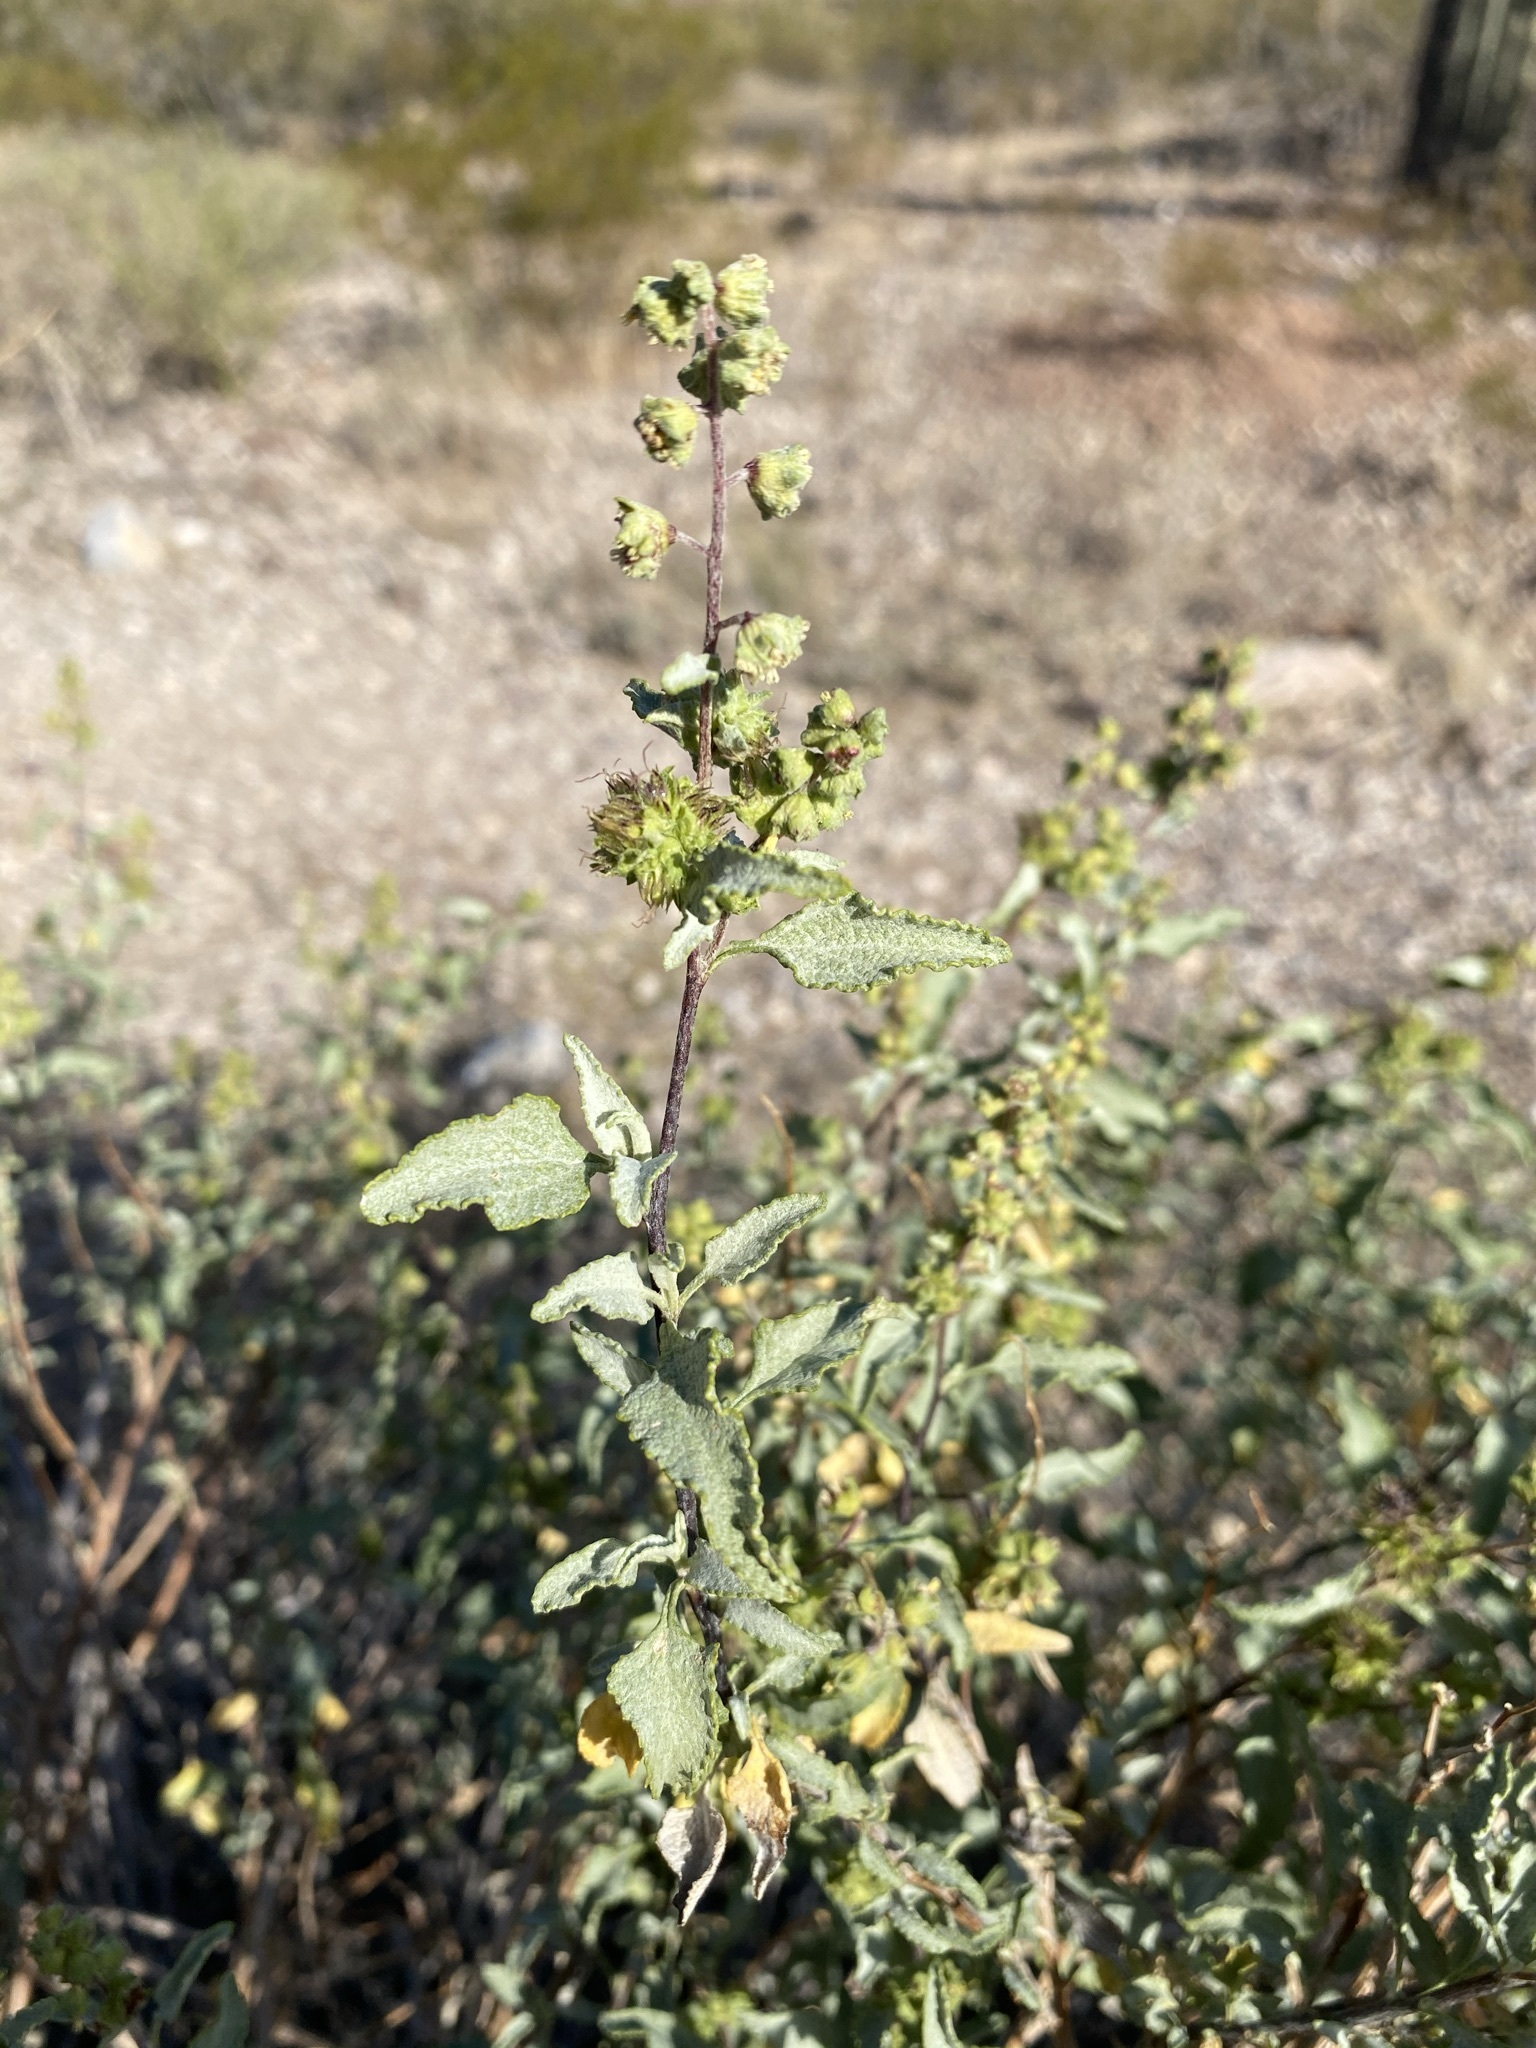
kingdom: Plantae
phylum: Tracheophyta
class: Magnoliopsida
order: Asterales
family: Asteraceae
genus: Ambrosia
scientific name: Ambrosia deltoidea
